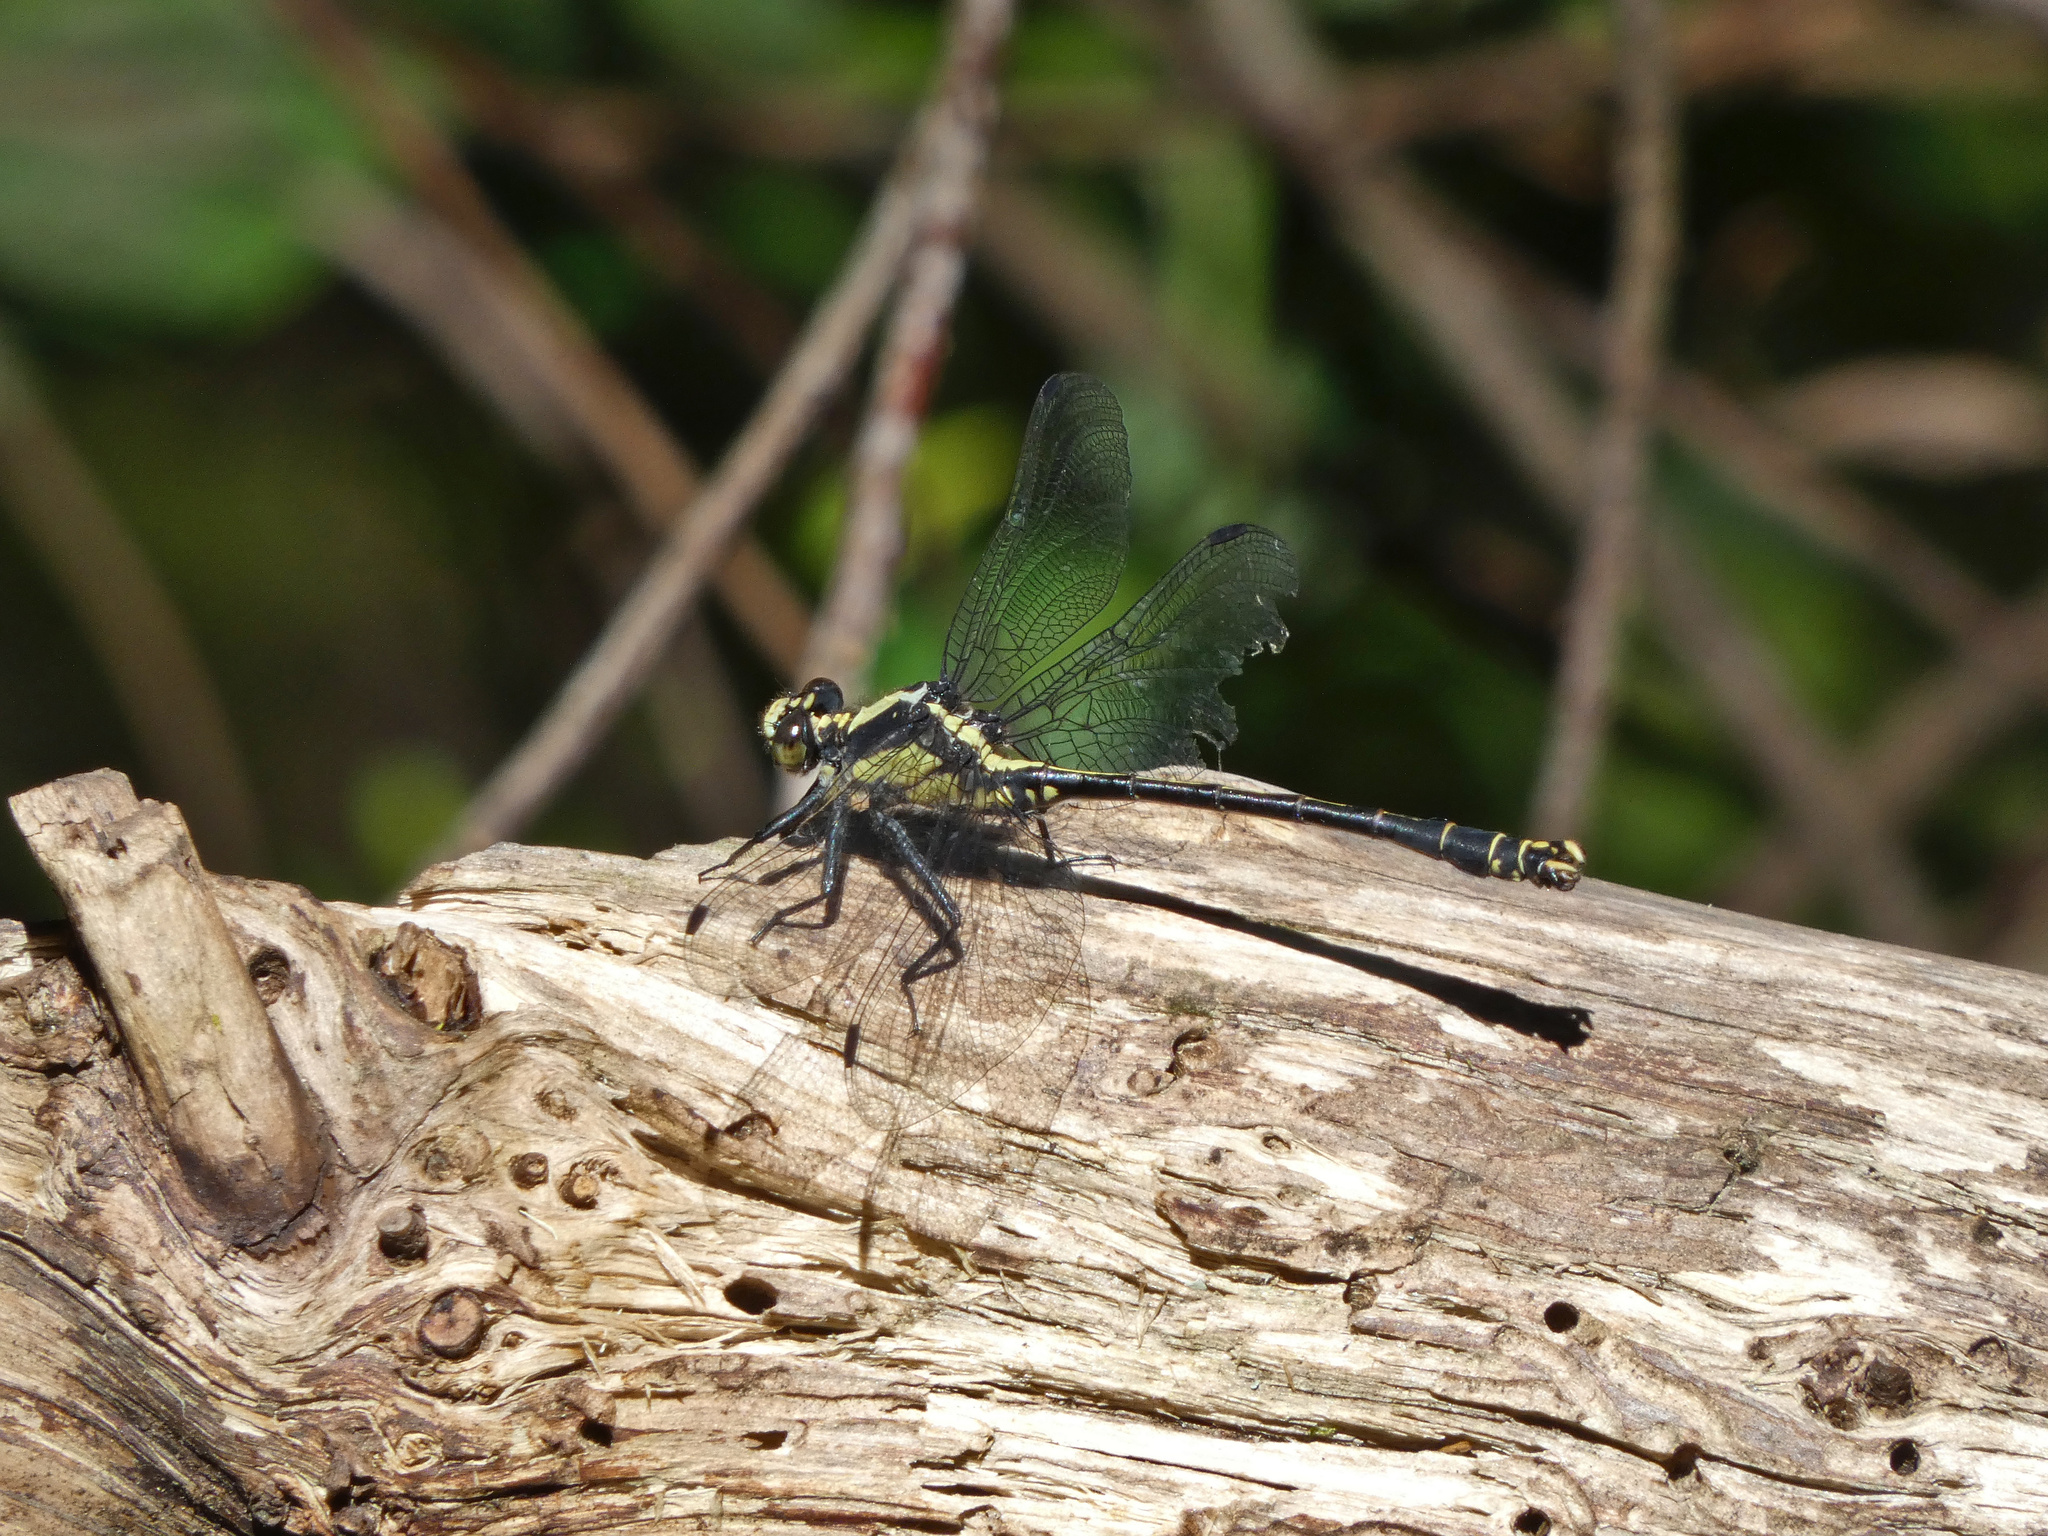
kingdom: Animalia
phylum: Arthropoda
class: Insecta
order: Odonata
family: Gomphidae
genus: Octogomphus
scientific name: Octogomphus specularis
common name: Grappletail
